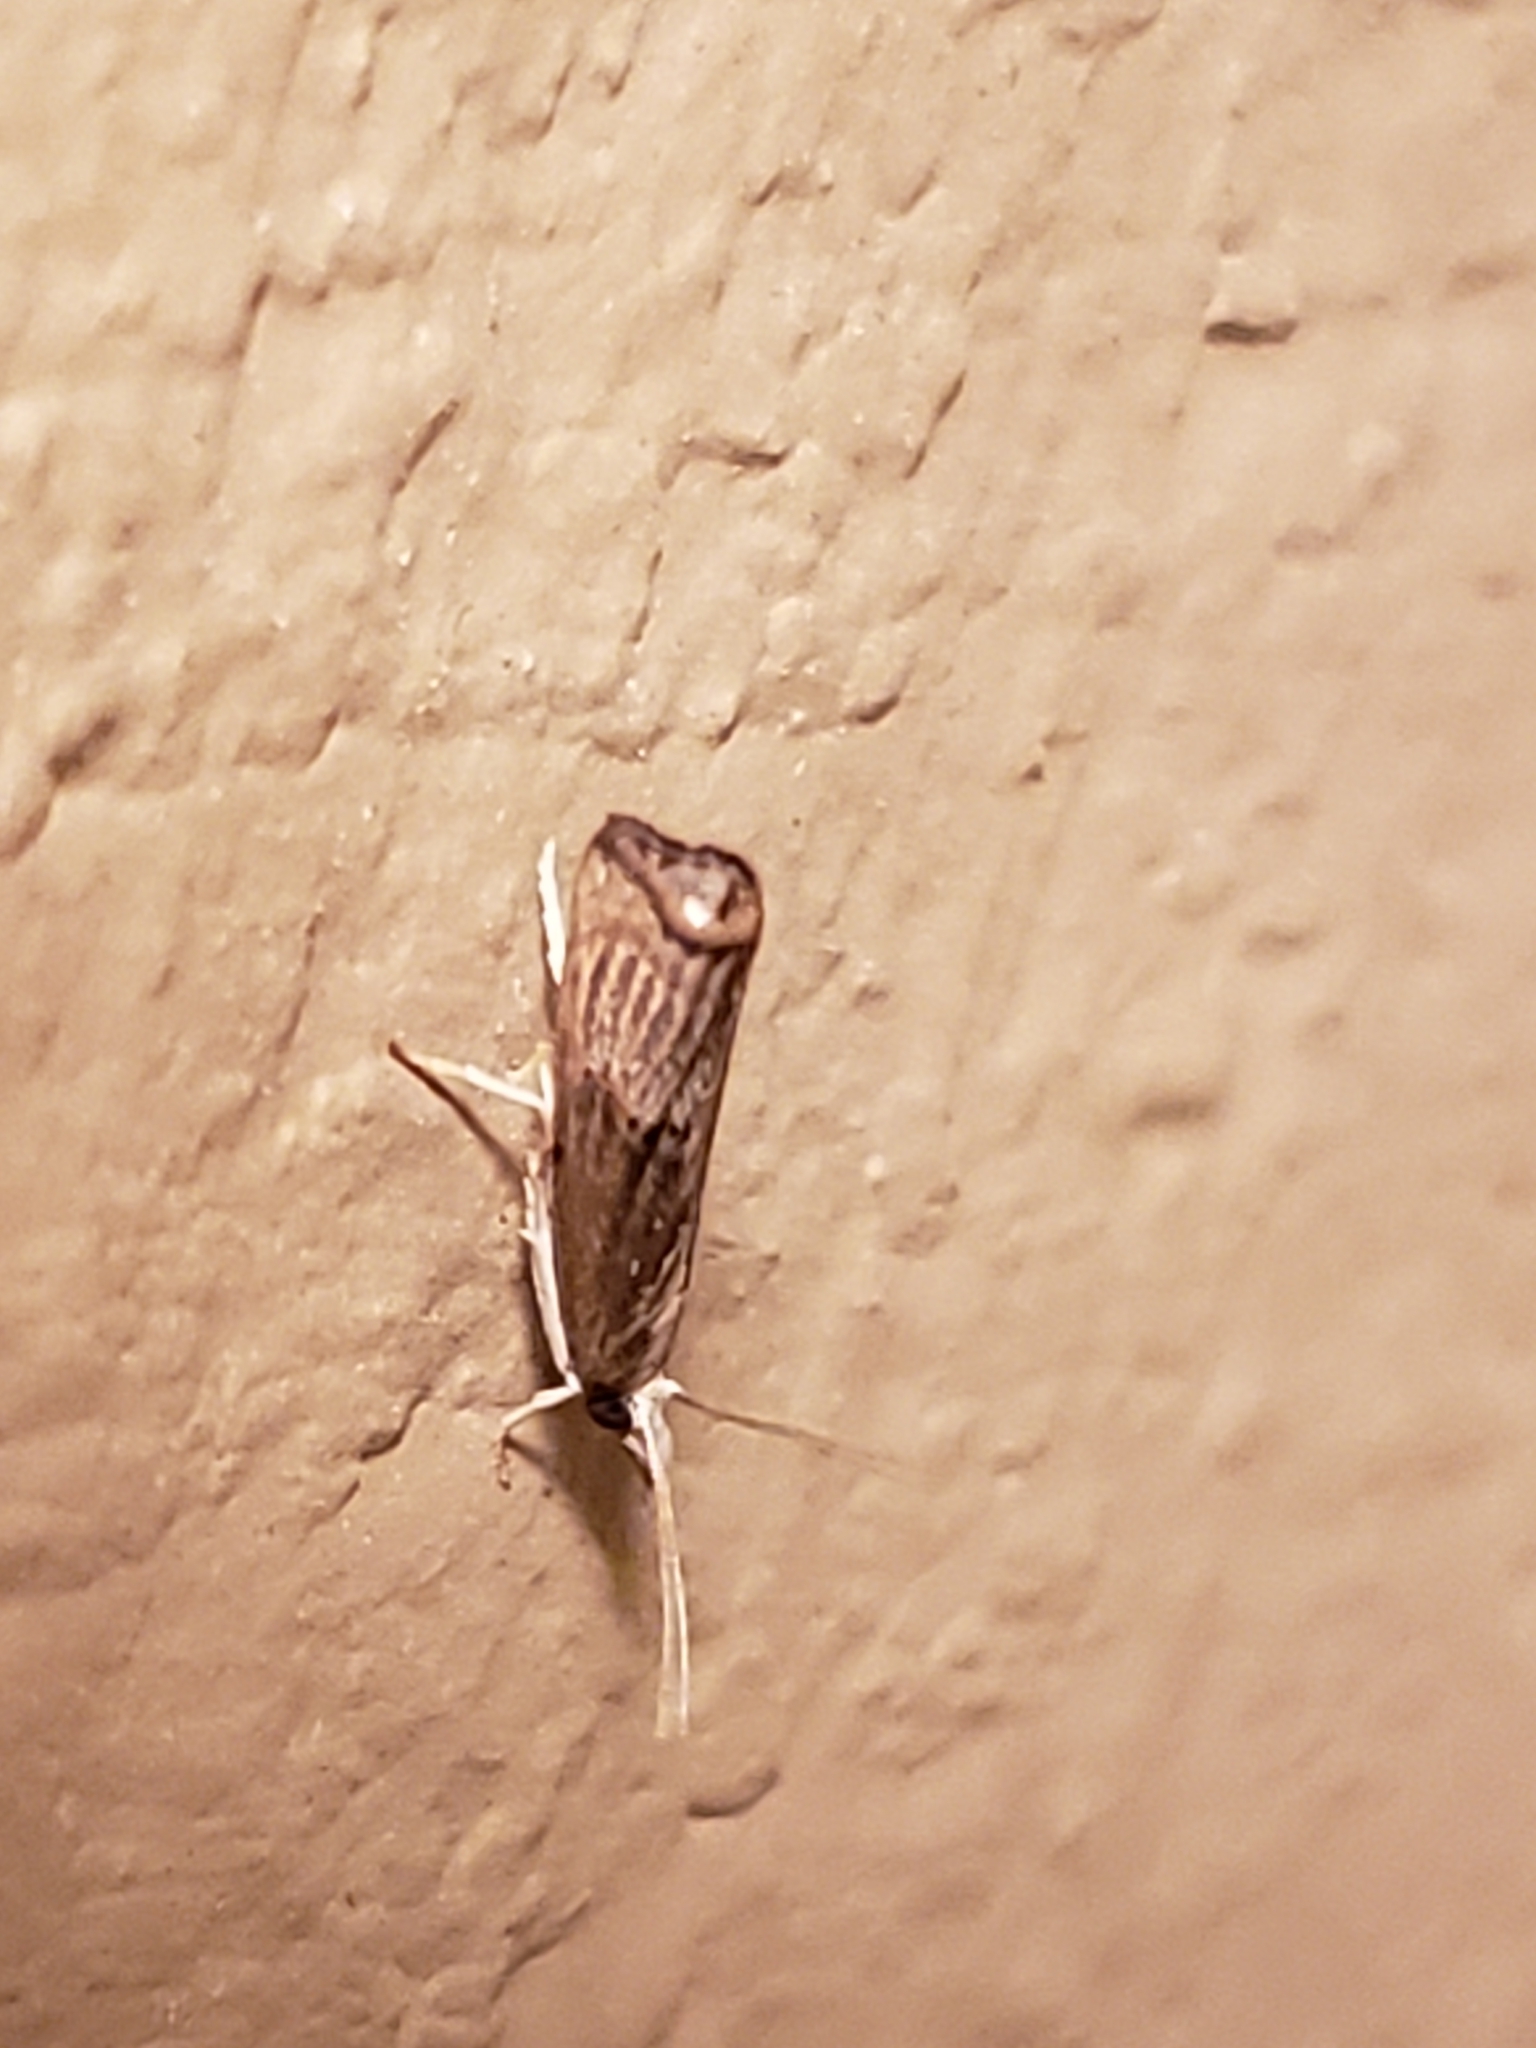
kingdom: Animalia
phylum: Arthropoda
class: Insecta
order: Lepidoptera
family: Crambidae
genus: Parapediasia
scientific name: Parapediasia decorellus
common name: Graceful grass-veneer
